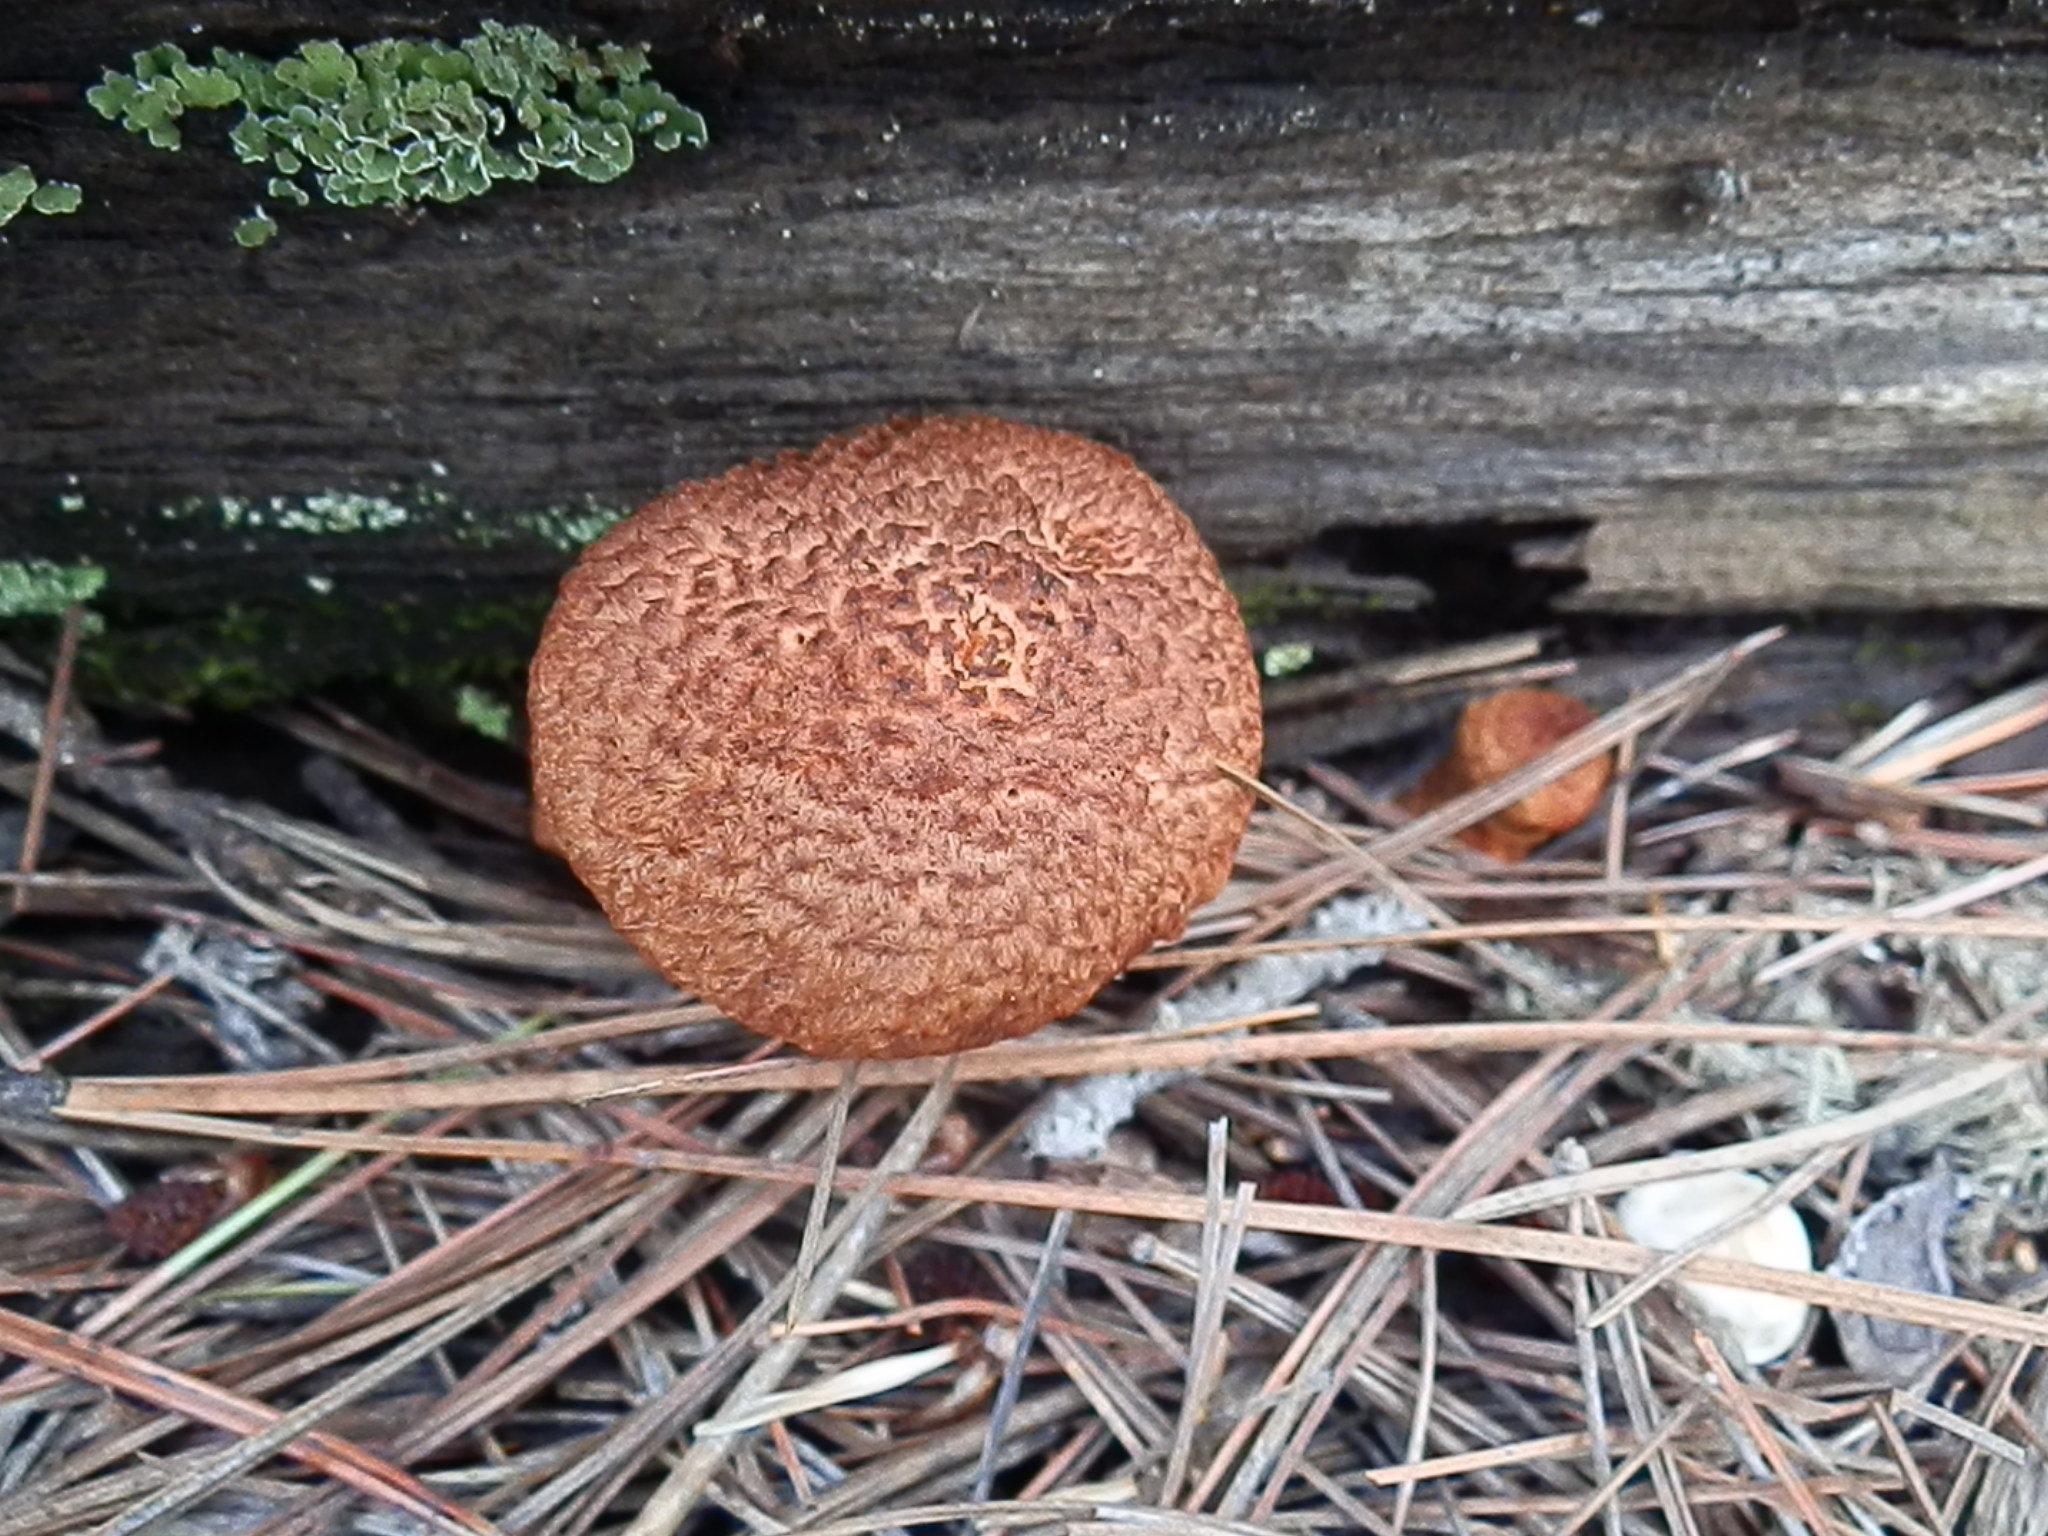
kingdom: Fungi
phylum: Basidiomycota
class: Agaricomycetes
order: Boletales
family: Suillaceae
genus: Suillus
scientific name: Suillus lakei
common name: Western painted suillus
